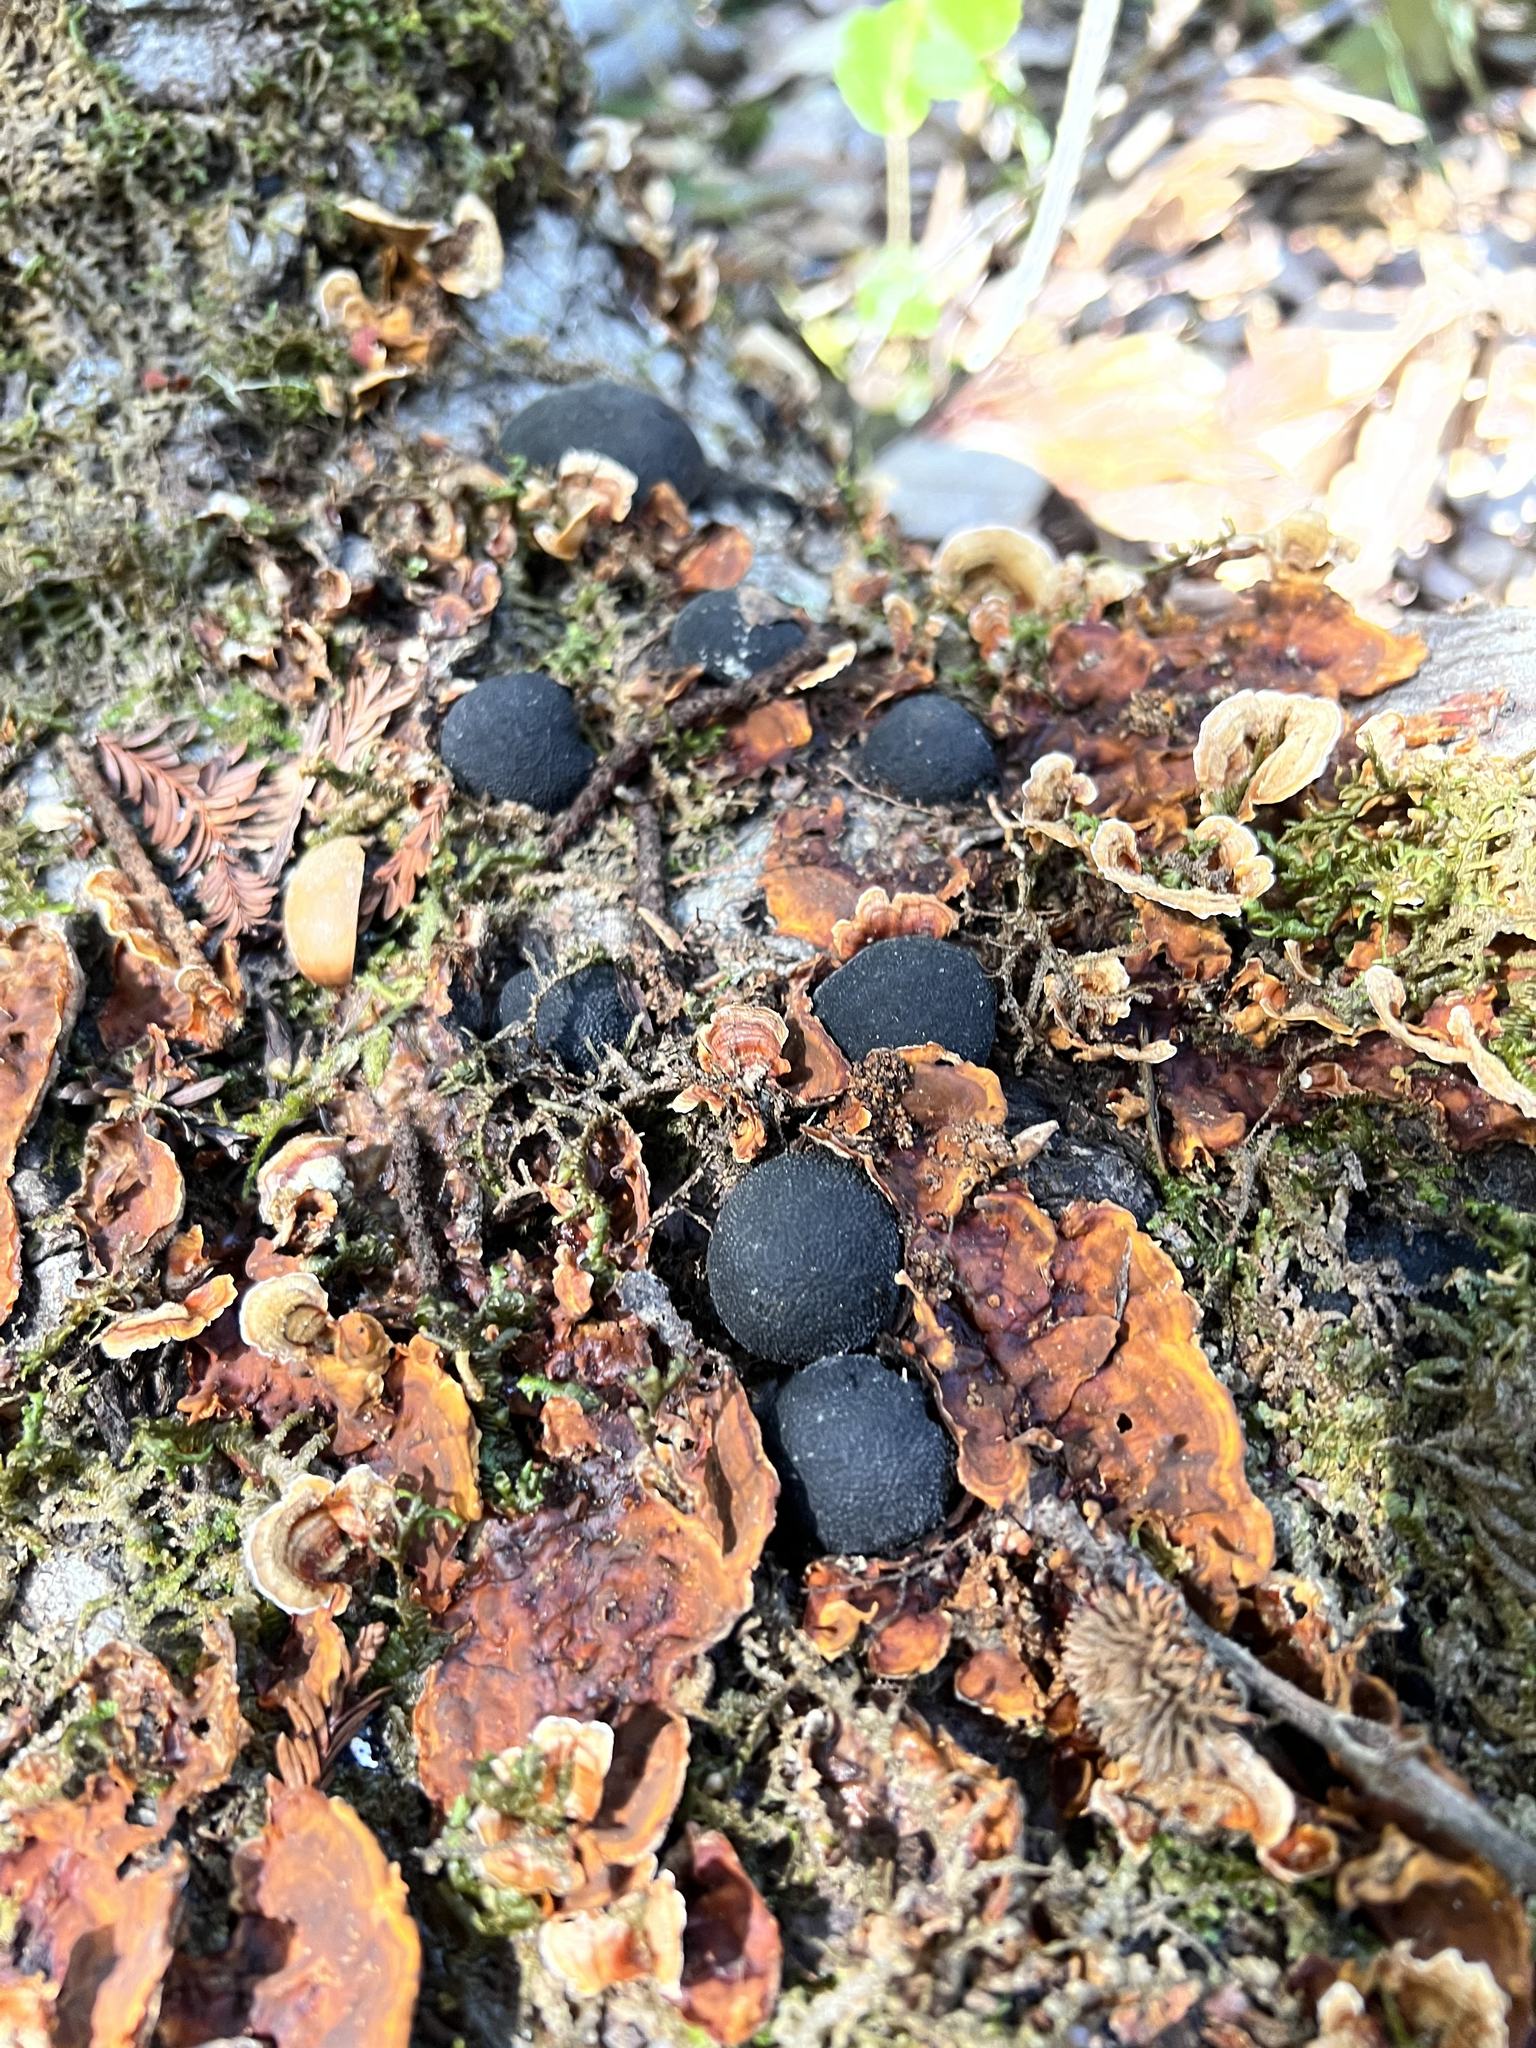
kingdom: Fungi
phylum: Ascomycota
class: Sordariomycetes
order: Xylariales
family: Hypoxylaceae
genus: Annulohypoxylon
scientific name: Annulohypoxylon thouarsianum
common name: Cramp balls
